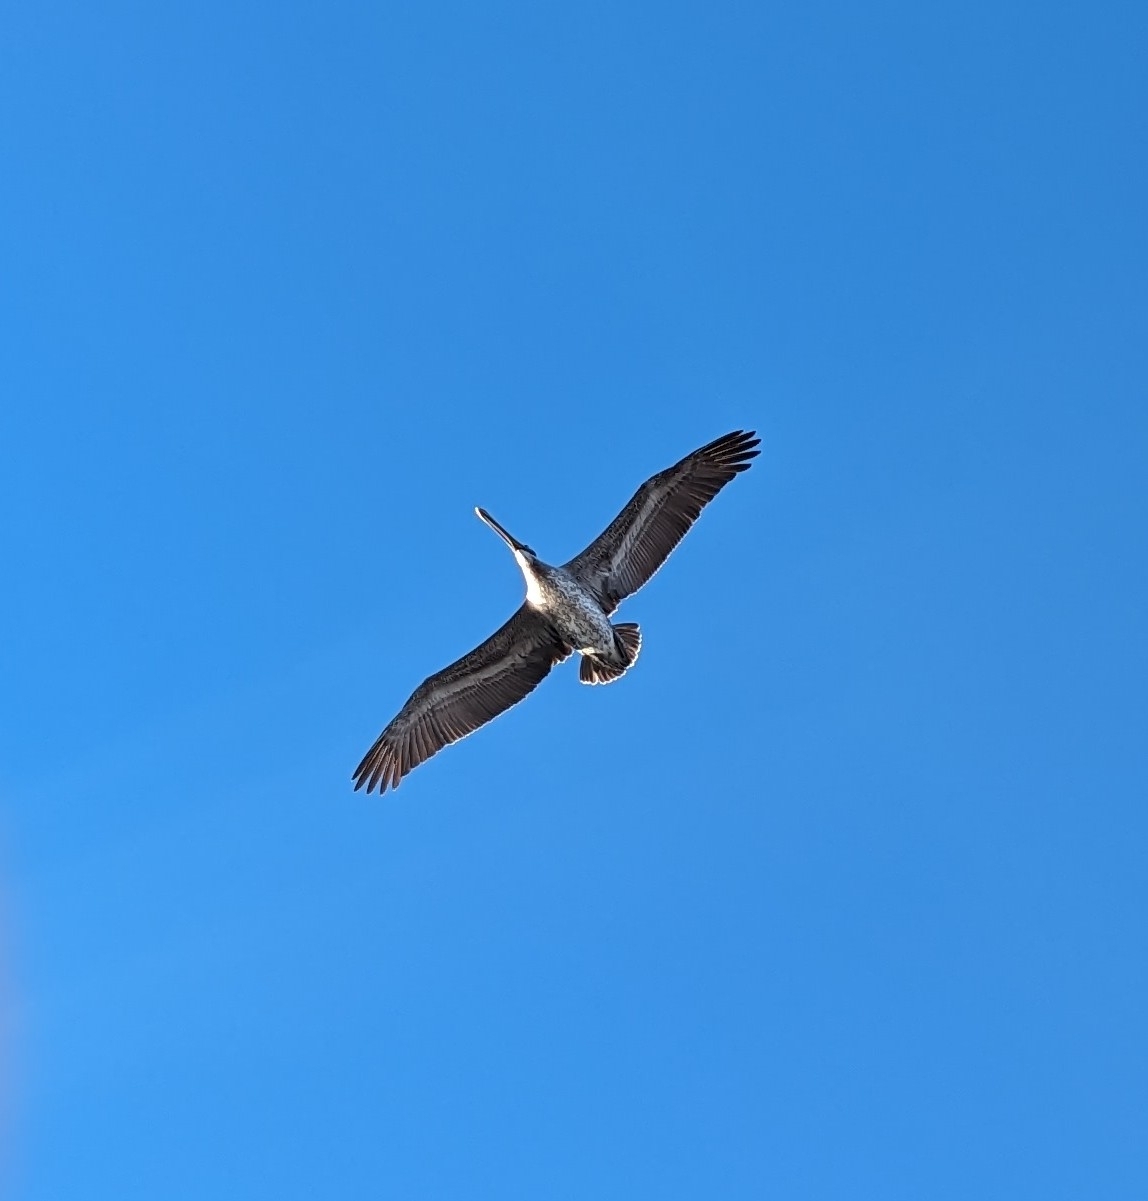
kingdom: Animalia
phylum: Chordata
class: Aves
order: Pelecaniformes
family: Pelecanidae
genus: Pelecanus
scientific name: Pelecanus occidentalis
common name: Brown pelican
